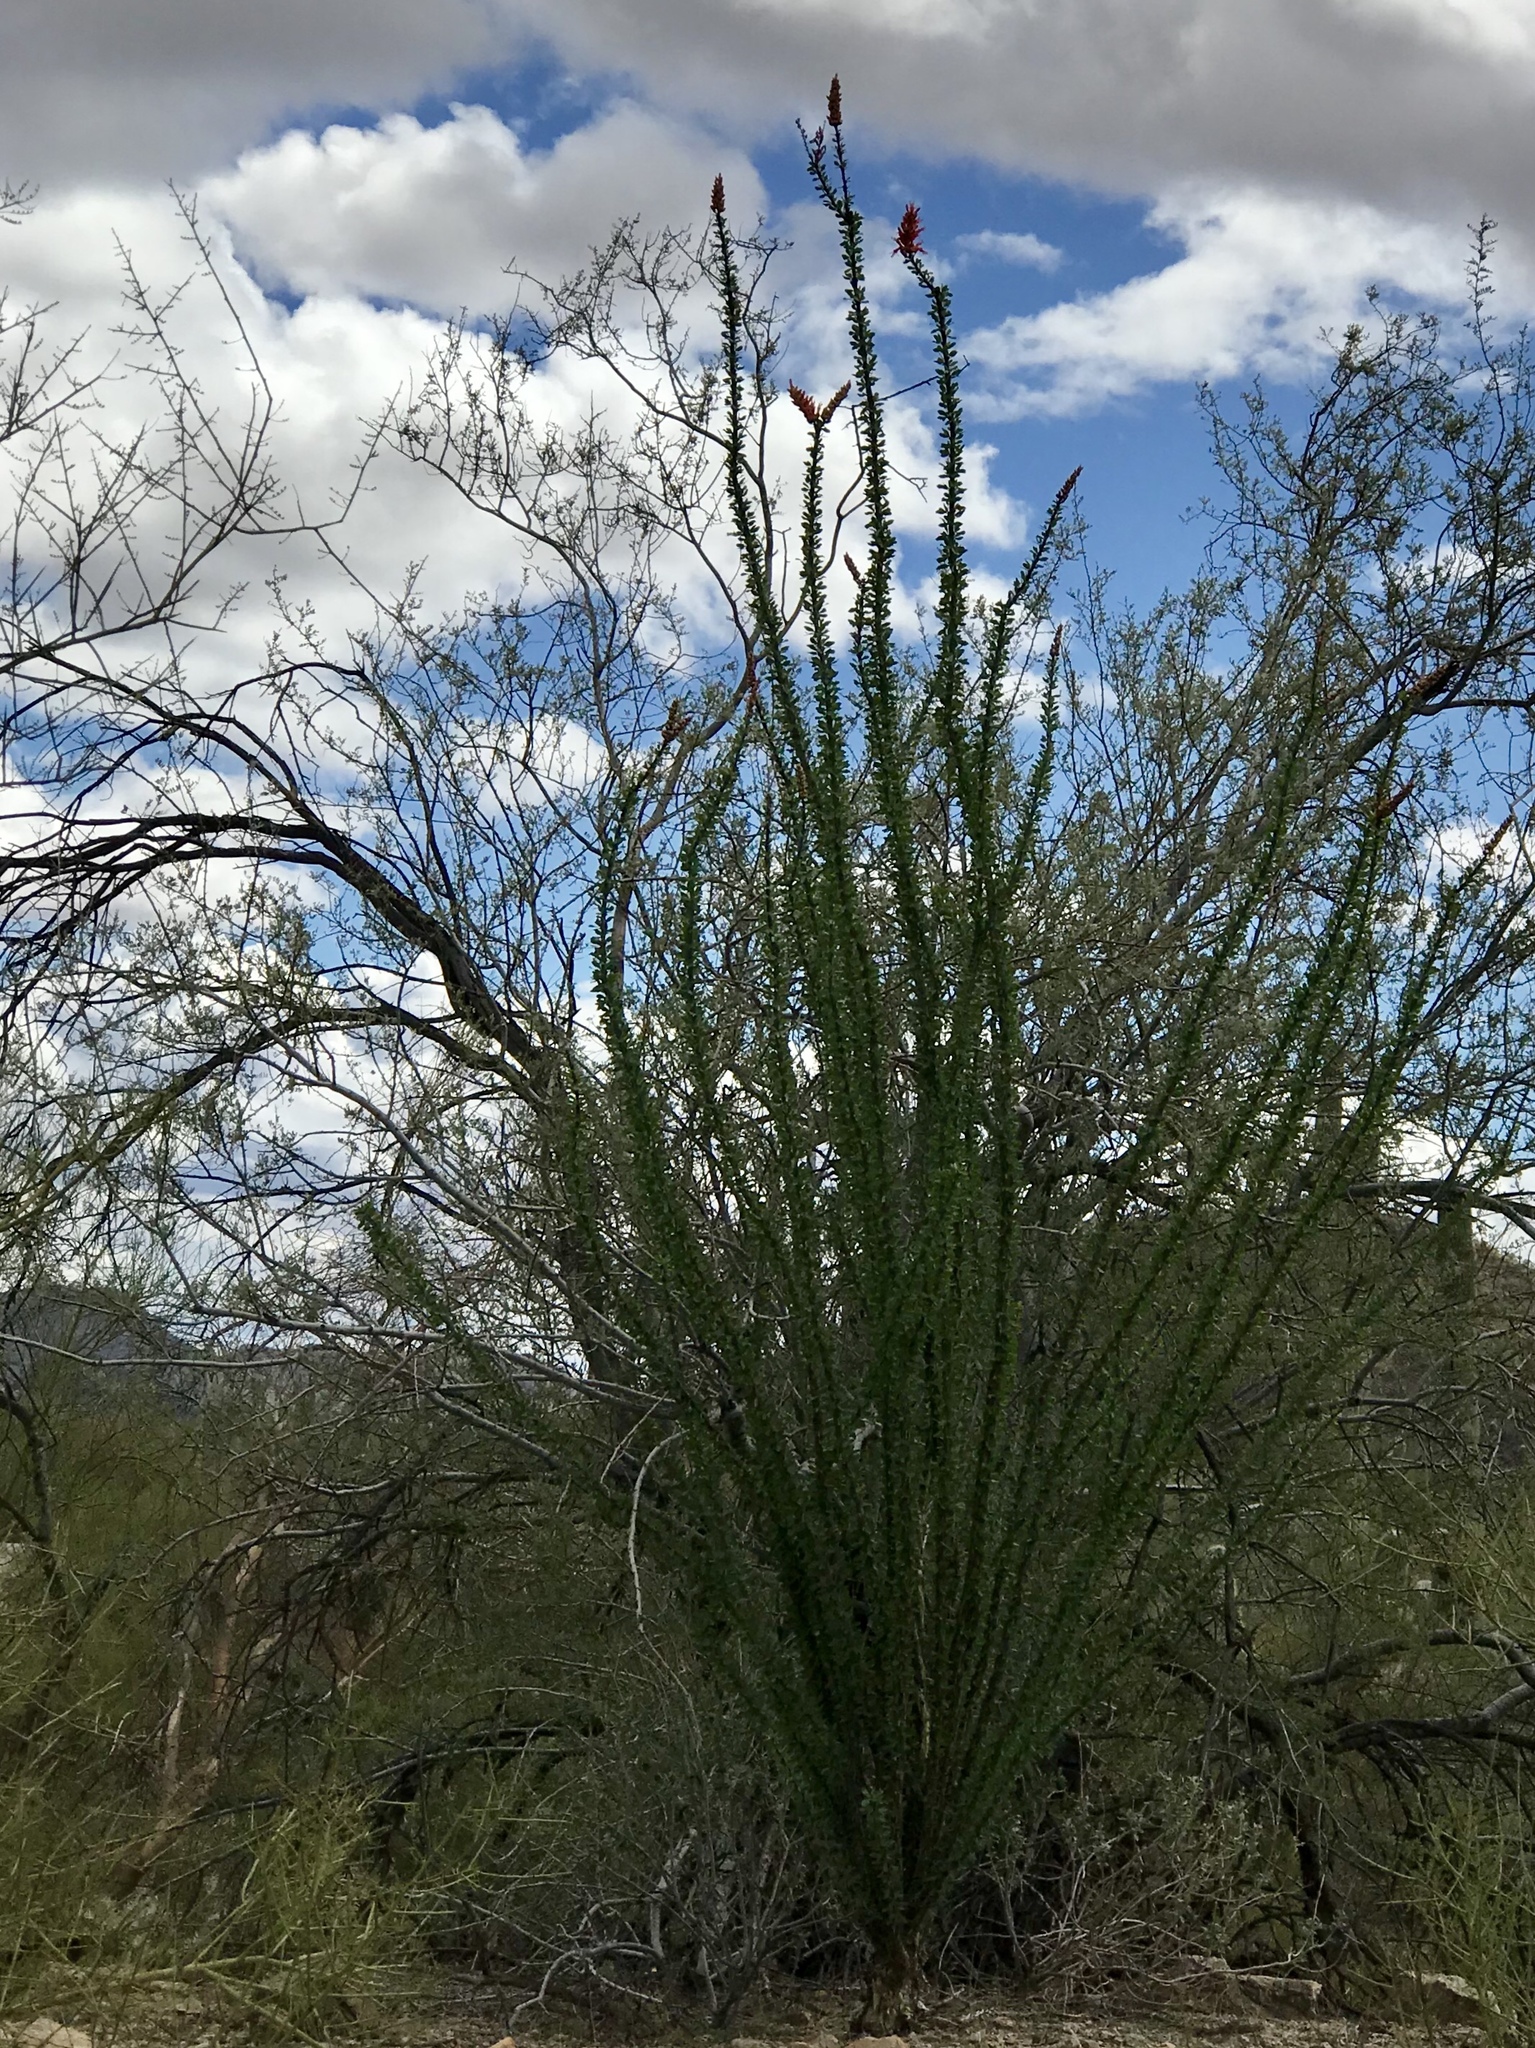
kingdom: Plantae
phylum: Tracheophyta
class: Magnoliopsida
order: Ericales
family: Fouquieriaceae
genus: Fouquieria
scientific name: Fouquieria splendens
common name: Vine-cactus
